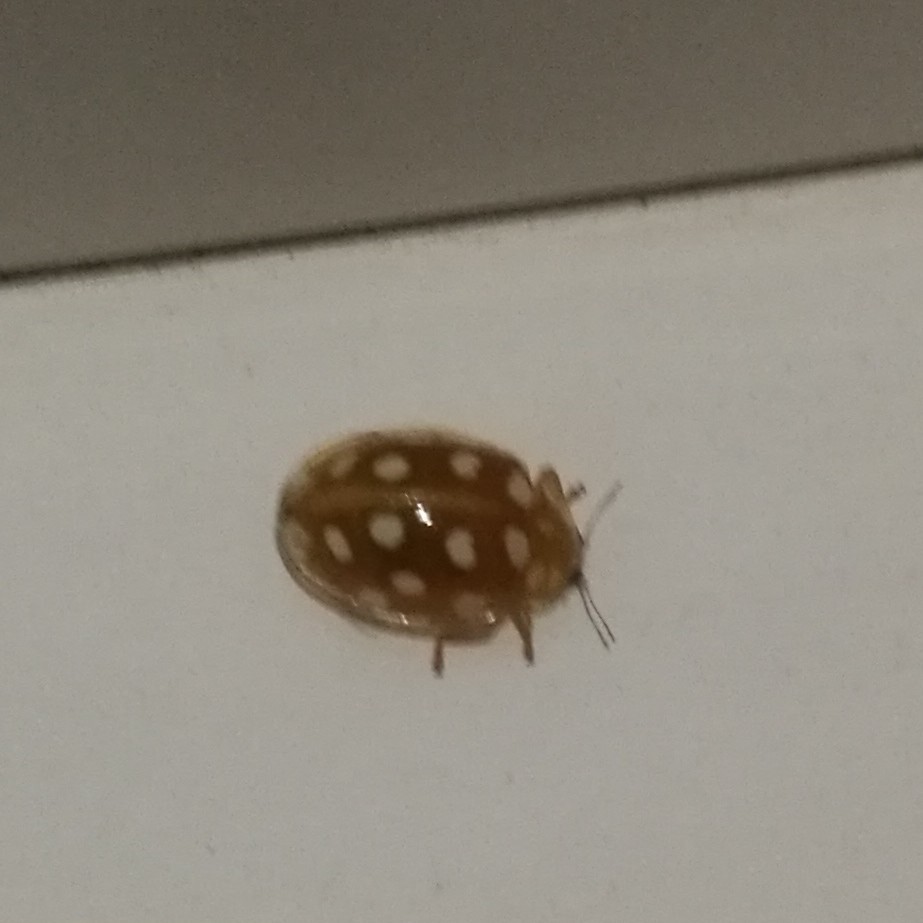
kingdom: Animalia
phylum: Arthropoda
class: Insecta
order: Coleoptera
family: Coccinellidae
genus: Halyzia
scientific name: Halyzia sedecimguttata
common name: Orange ladybird
